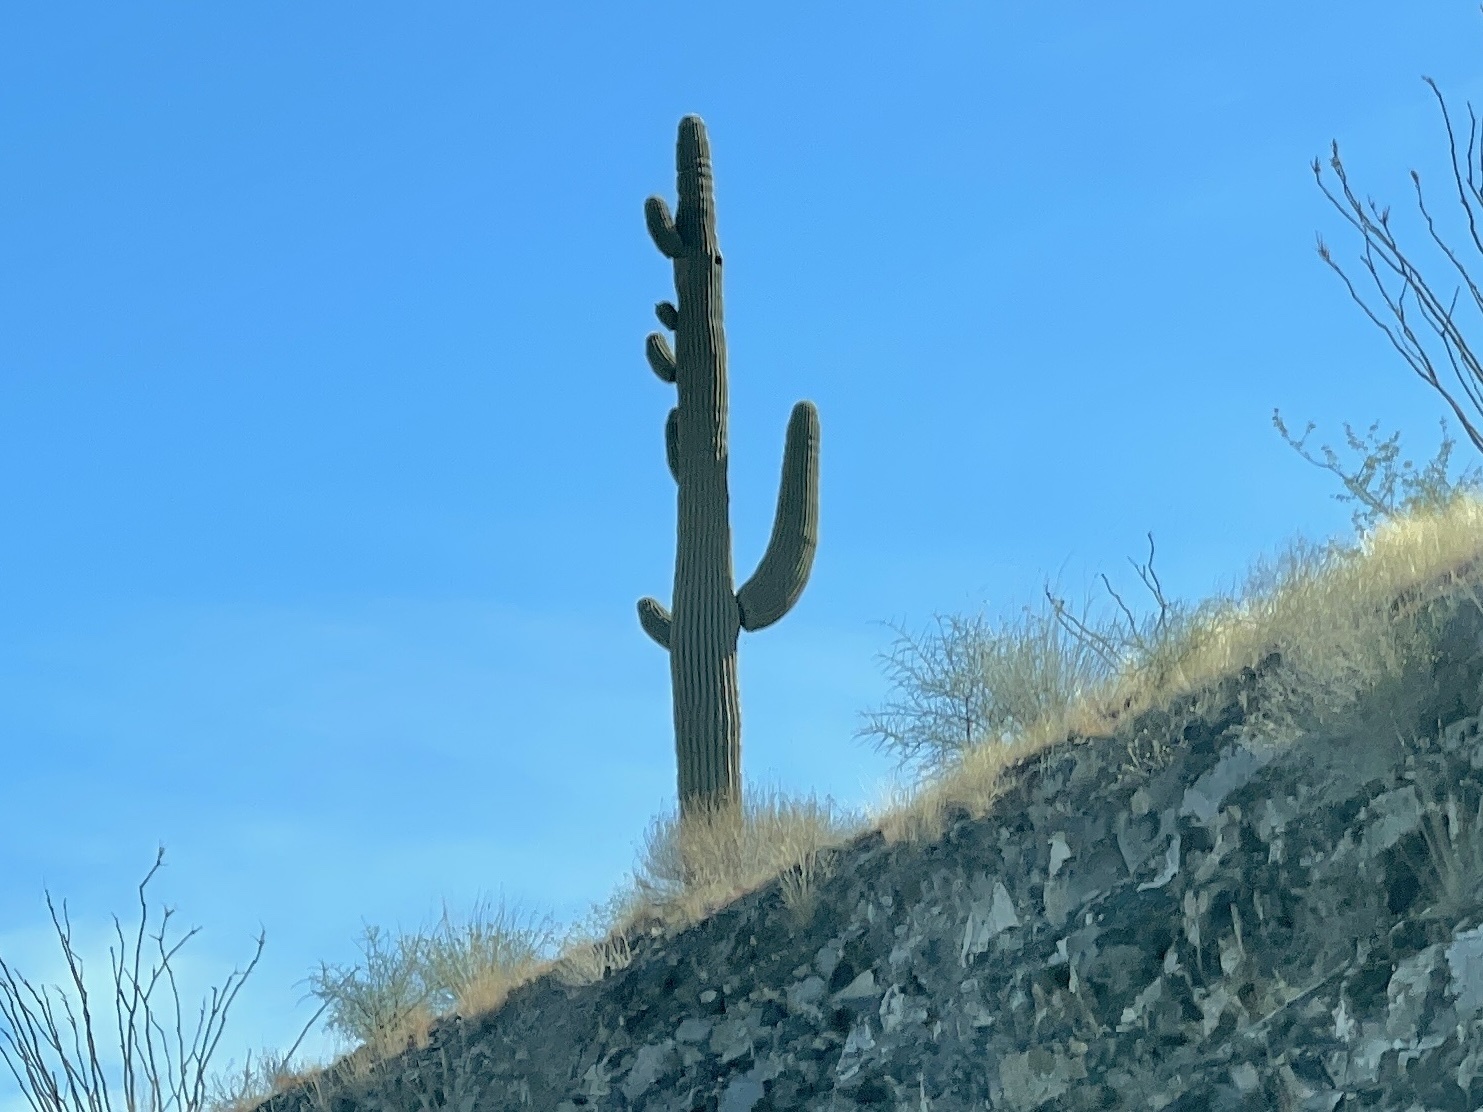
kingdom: Plantae
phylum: Tracheophyta
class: Magnoliopsida
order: Caryophyllales
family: Cactaceae
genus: Carnegiea
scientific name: Carnegiea gigantea
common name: Saguaro
